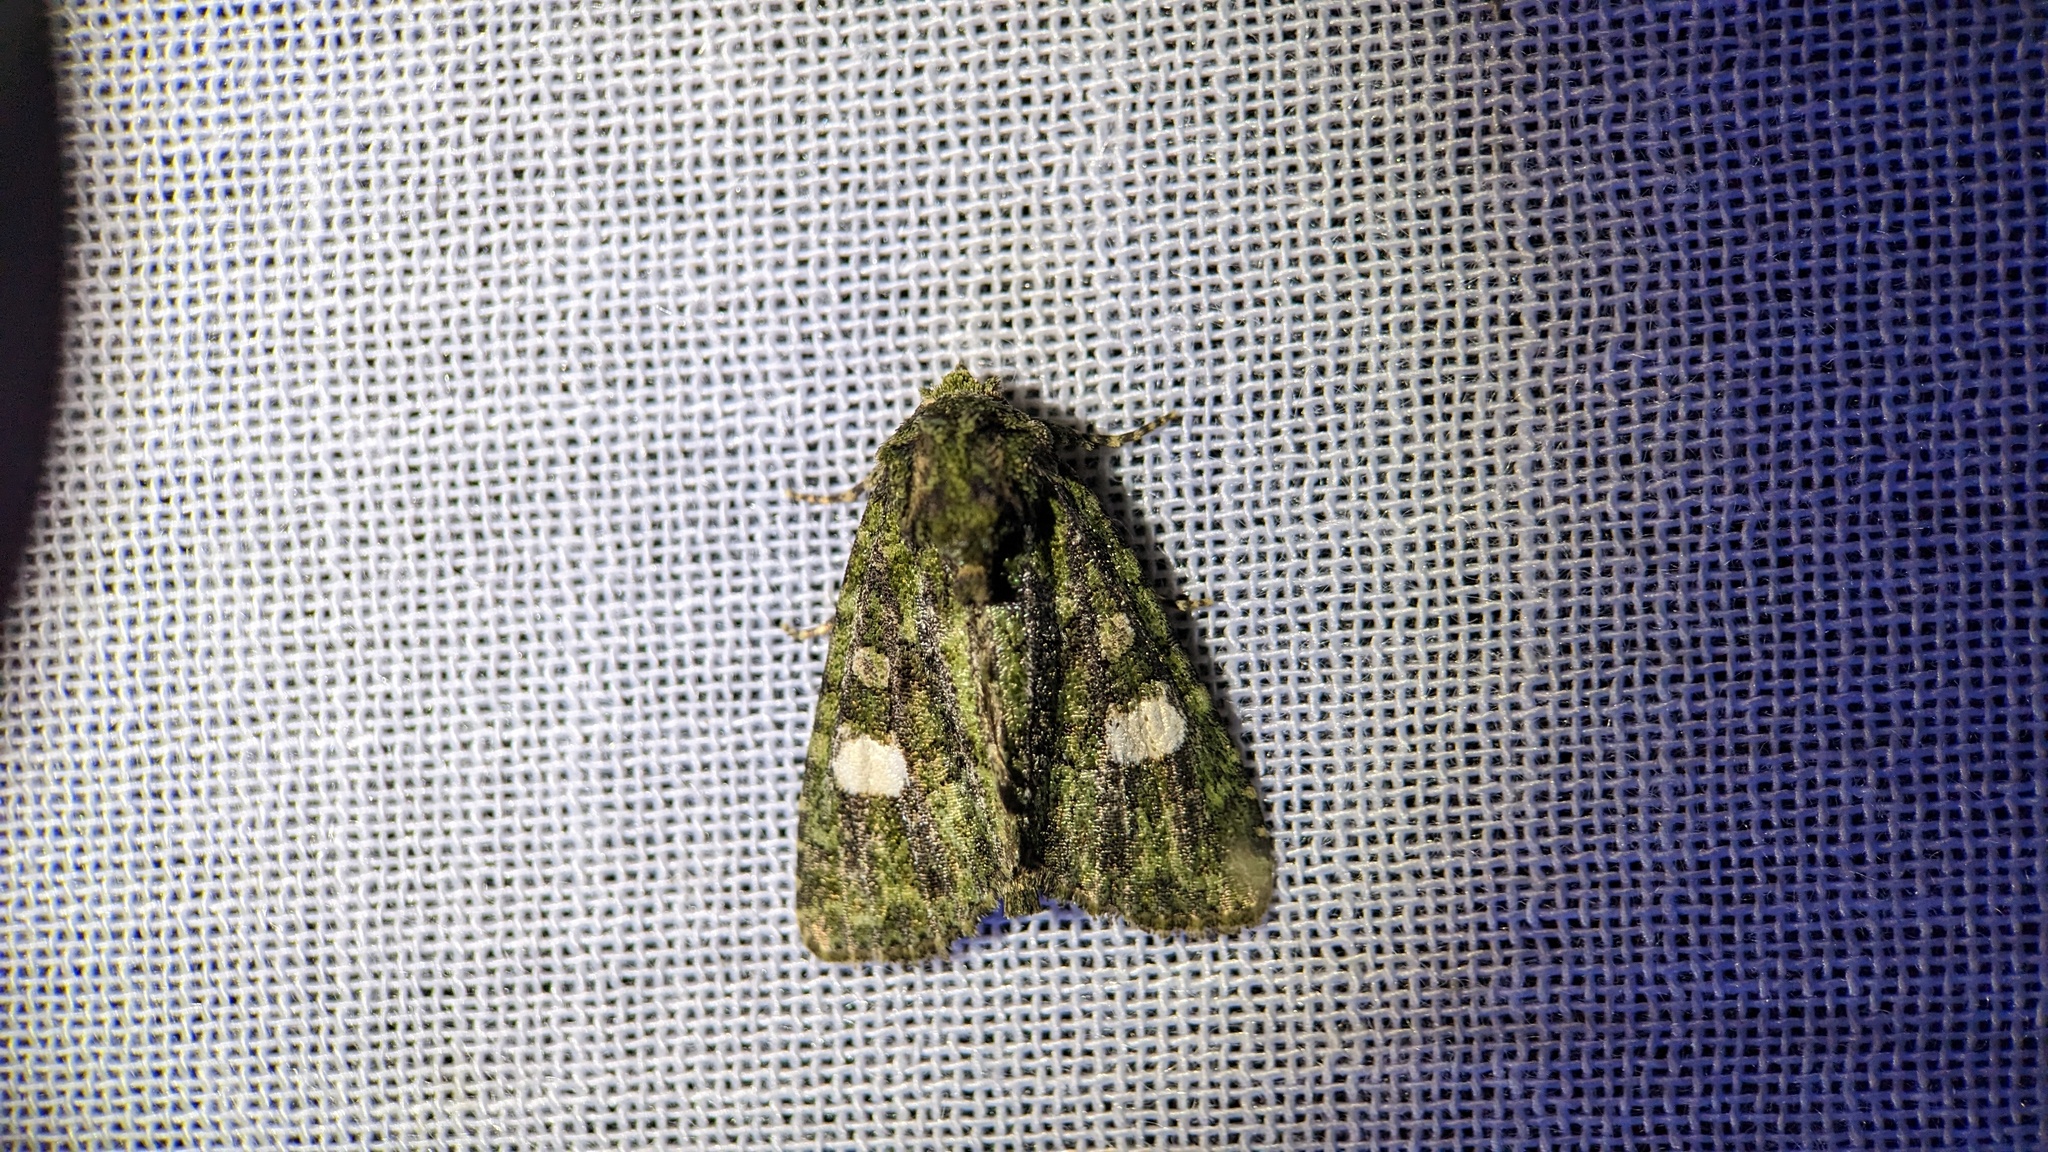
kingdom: Animalia
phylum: Arthropoda
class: Insecta
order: Lepidoptera
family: Noctuidae
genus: Phosphila
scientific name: Phosphila miselioides
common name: Spotted phosphila moth
